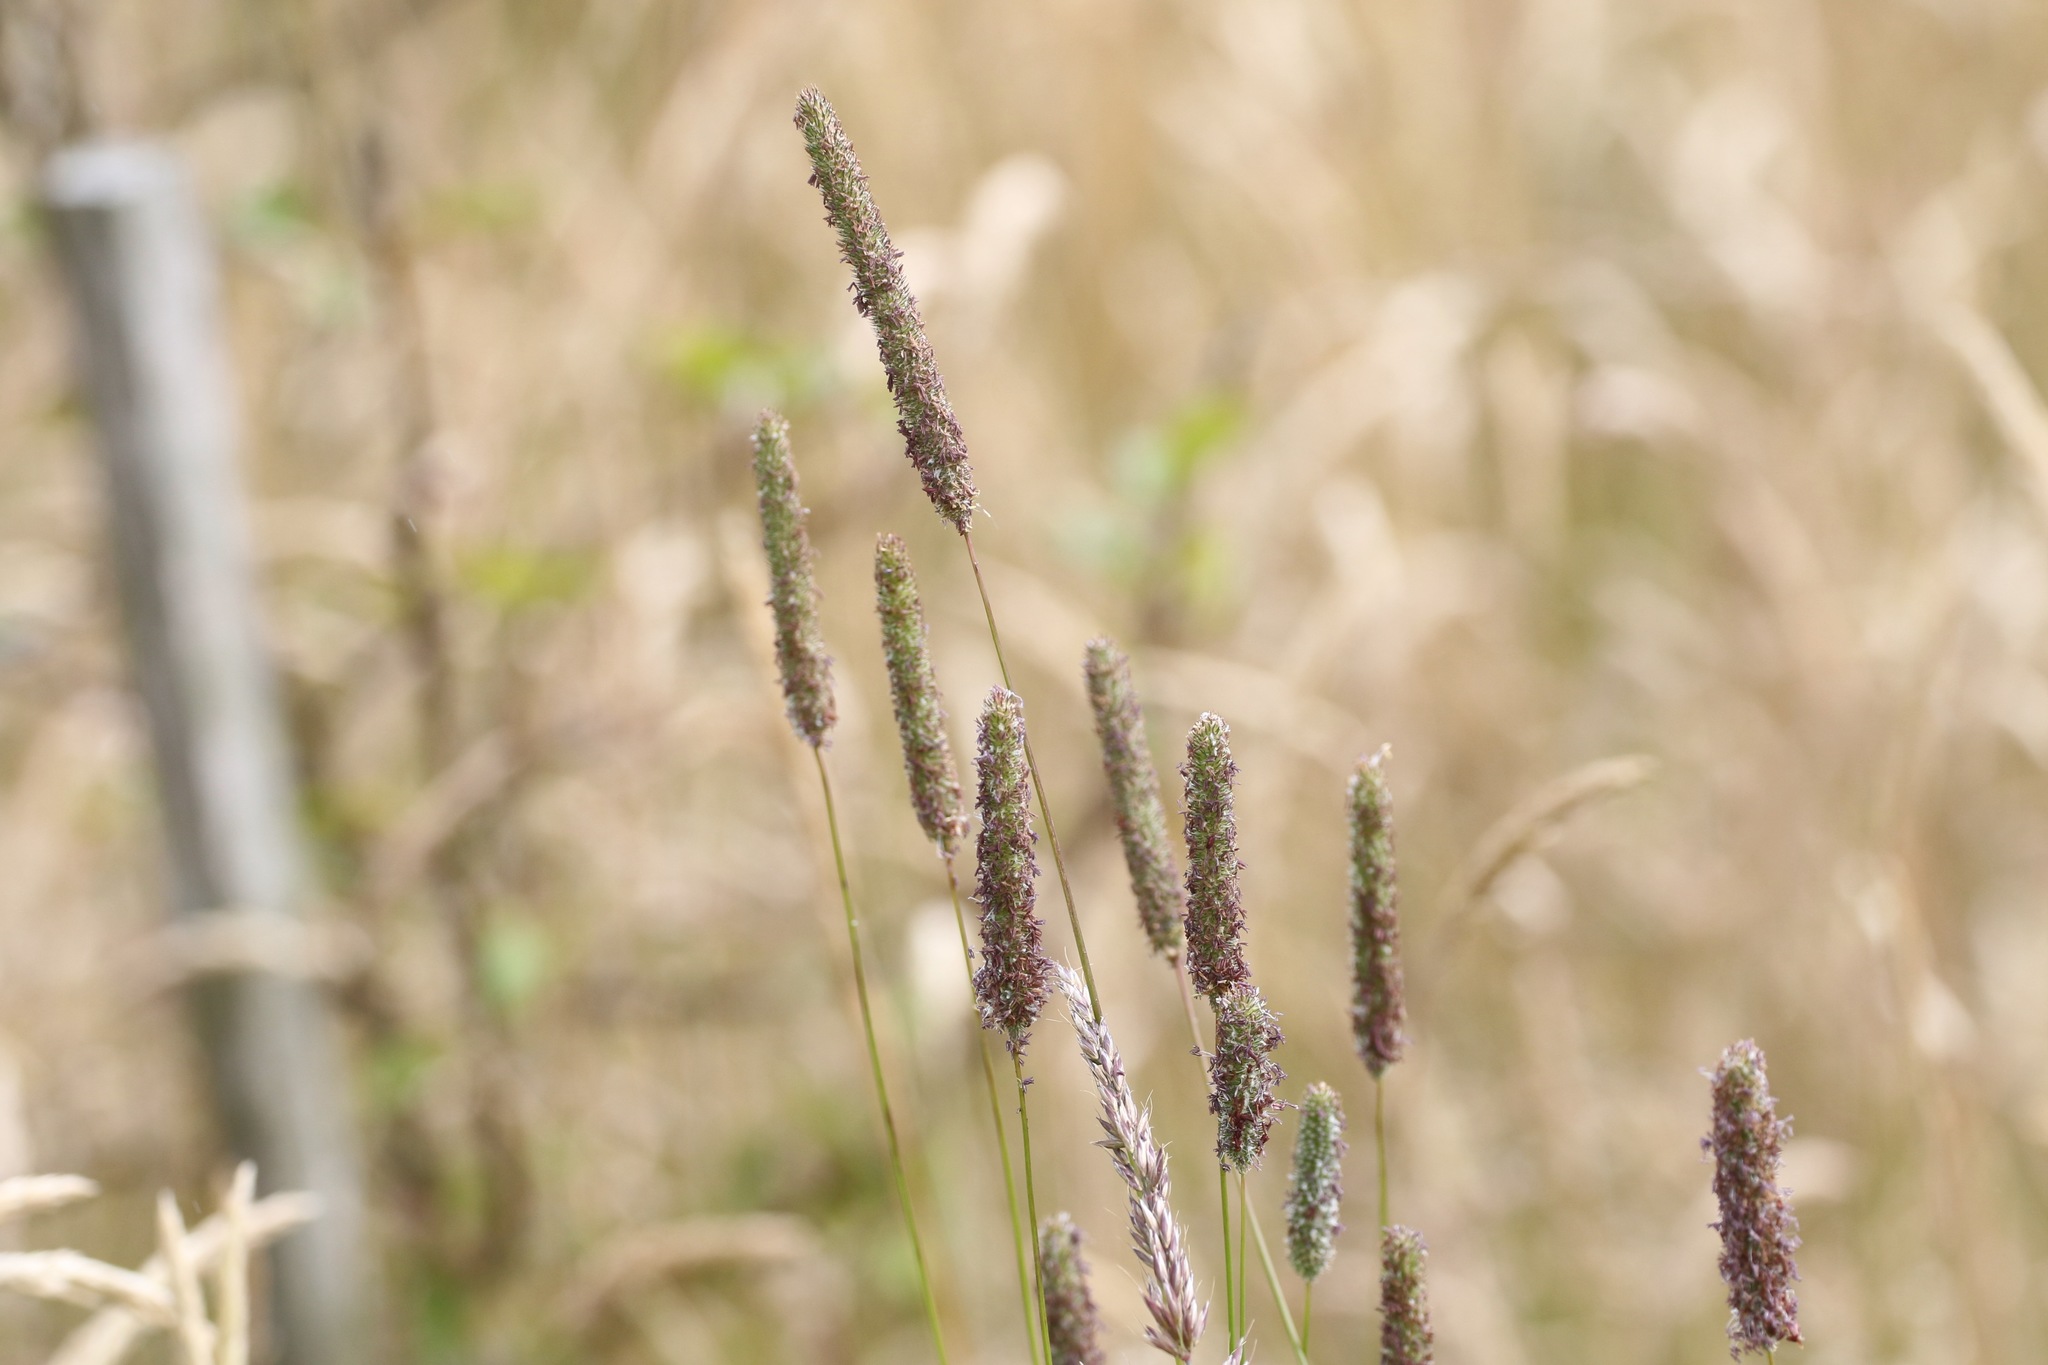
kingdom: Plantae
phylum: Tracheophyta
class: Liliopsida
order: Poales
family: Poaceae
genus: Phleum
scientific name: Phleum pratense
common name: Timothy grass
